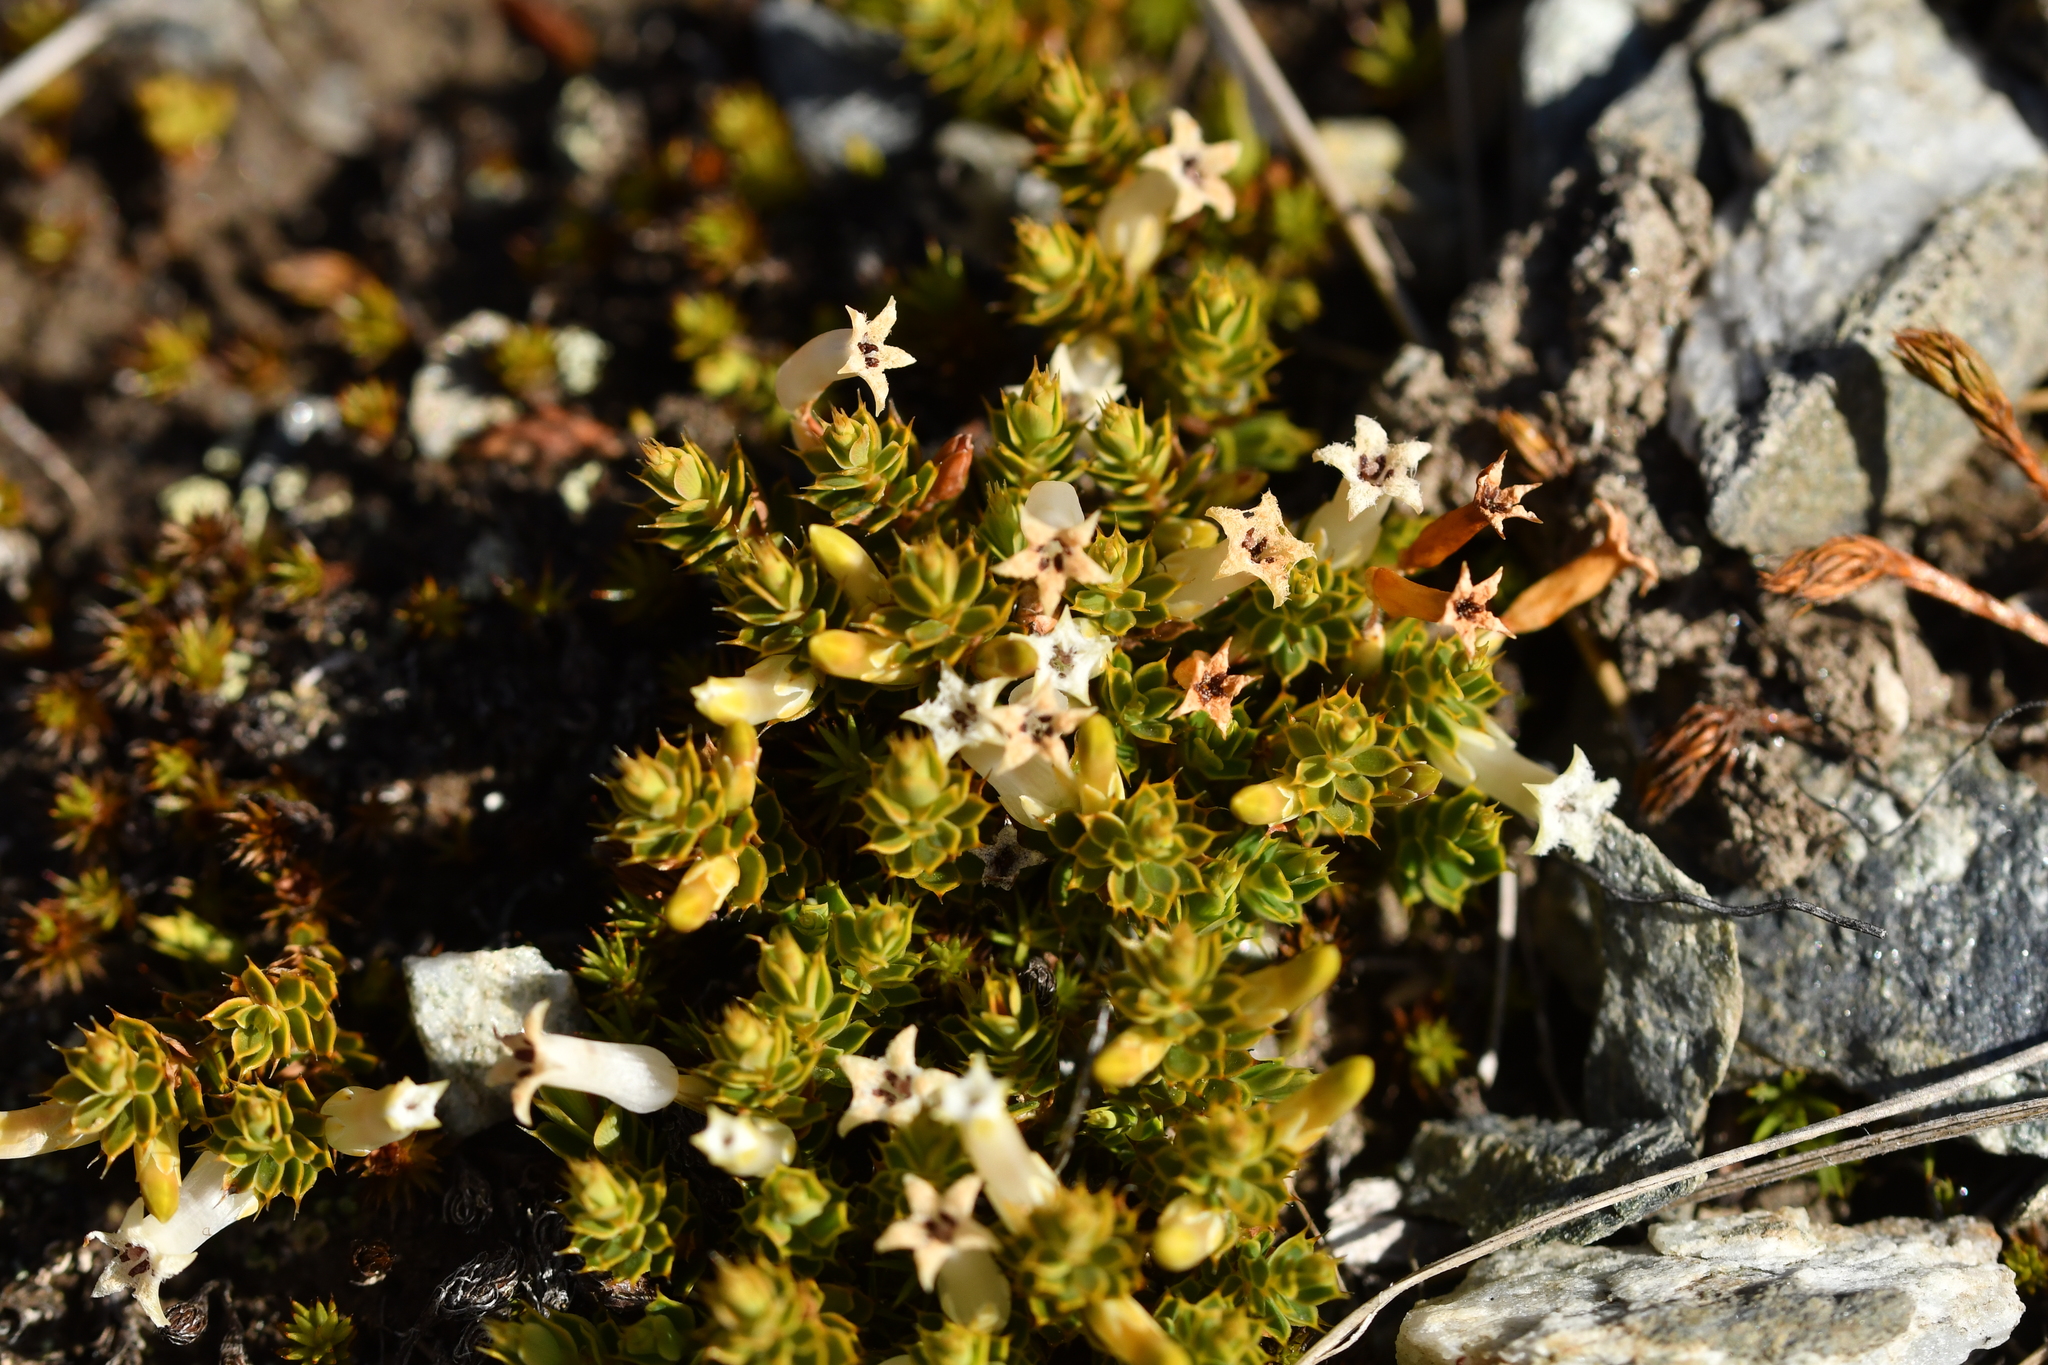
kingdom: Plantae
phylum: Tracheophyta
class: Magnoliopsida
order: Ericales
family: Ericaceae
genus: Styphelia
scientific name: Styphelia nesophila
